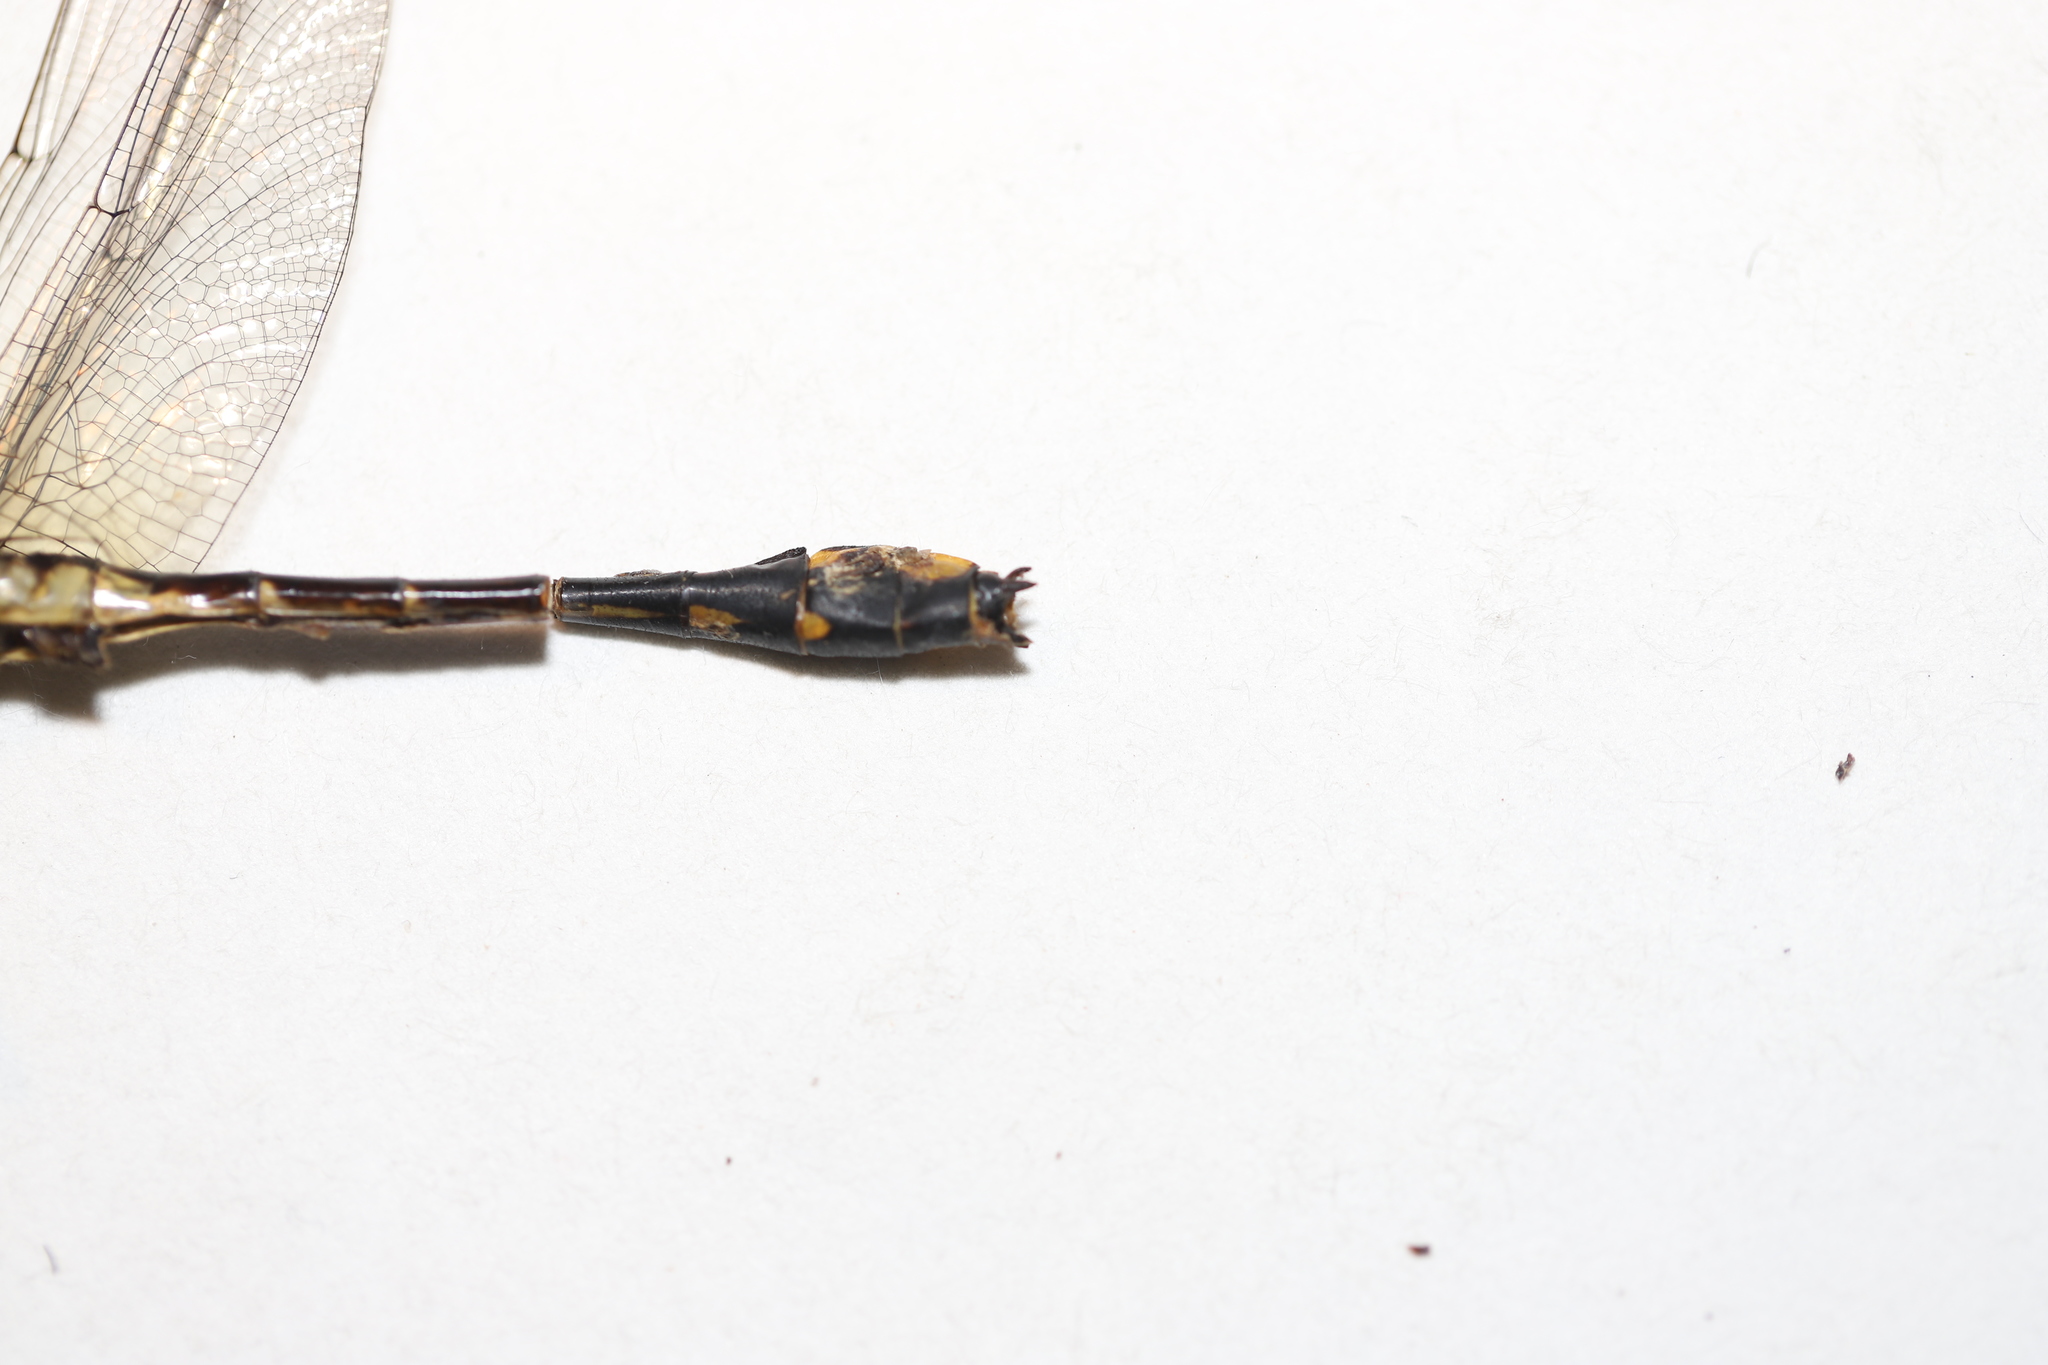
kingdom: Animalia
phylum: Arthropoda
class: Insecta
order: Odonata
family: Gomphidae
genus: Gomphurus
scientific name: Gomphurus fraternus
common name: Midland clubtail
